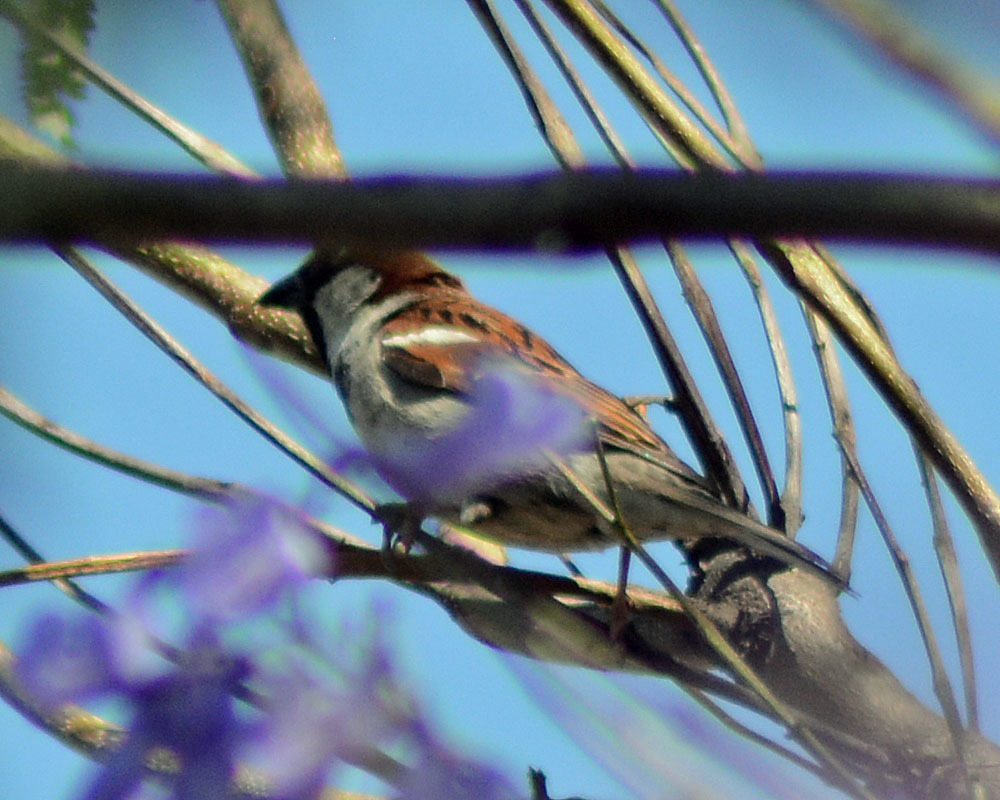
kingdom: Animalia
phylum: Chordata
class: Aves
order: Passeriformes
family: Passeridae
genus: Passer
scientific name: Passer domesticus
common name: House sparrow
